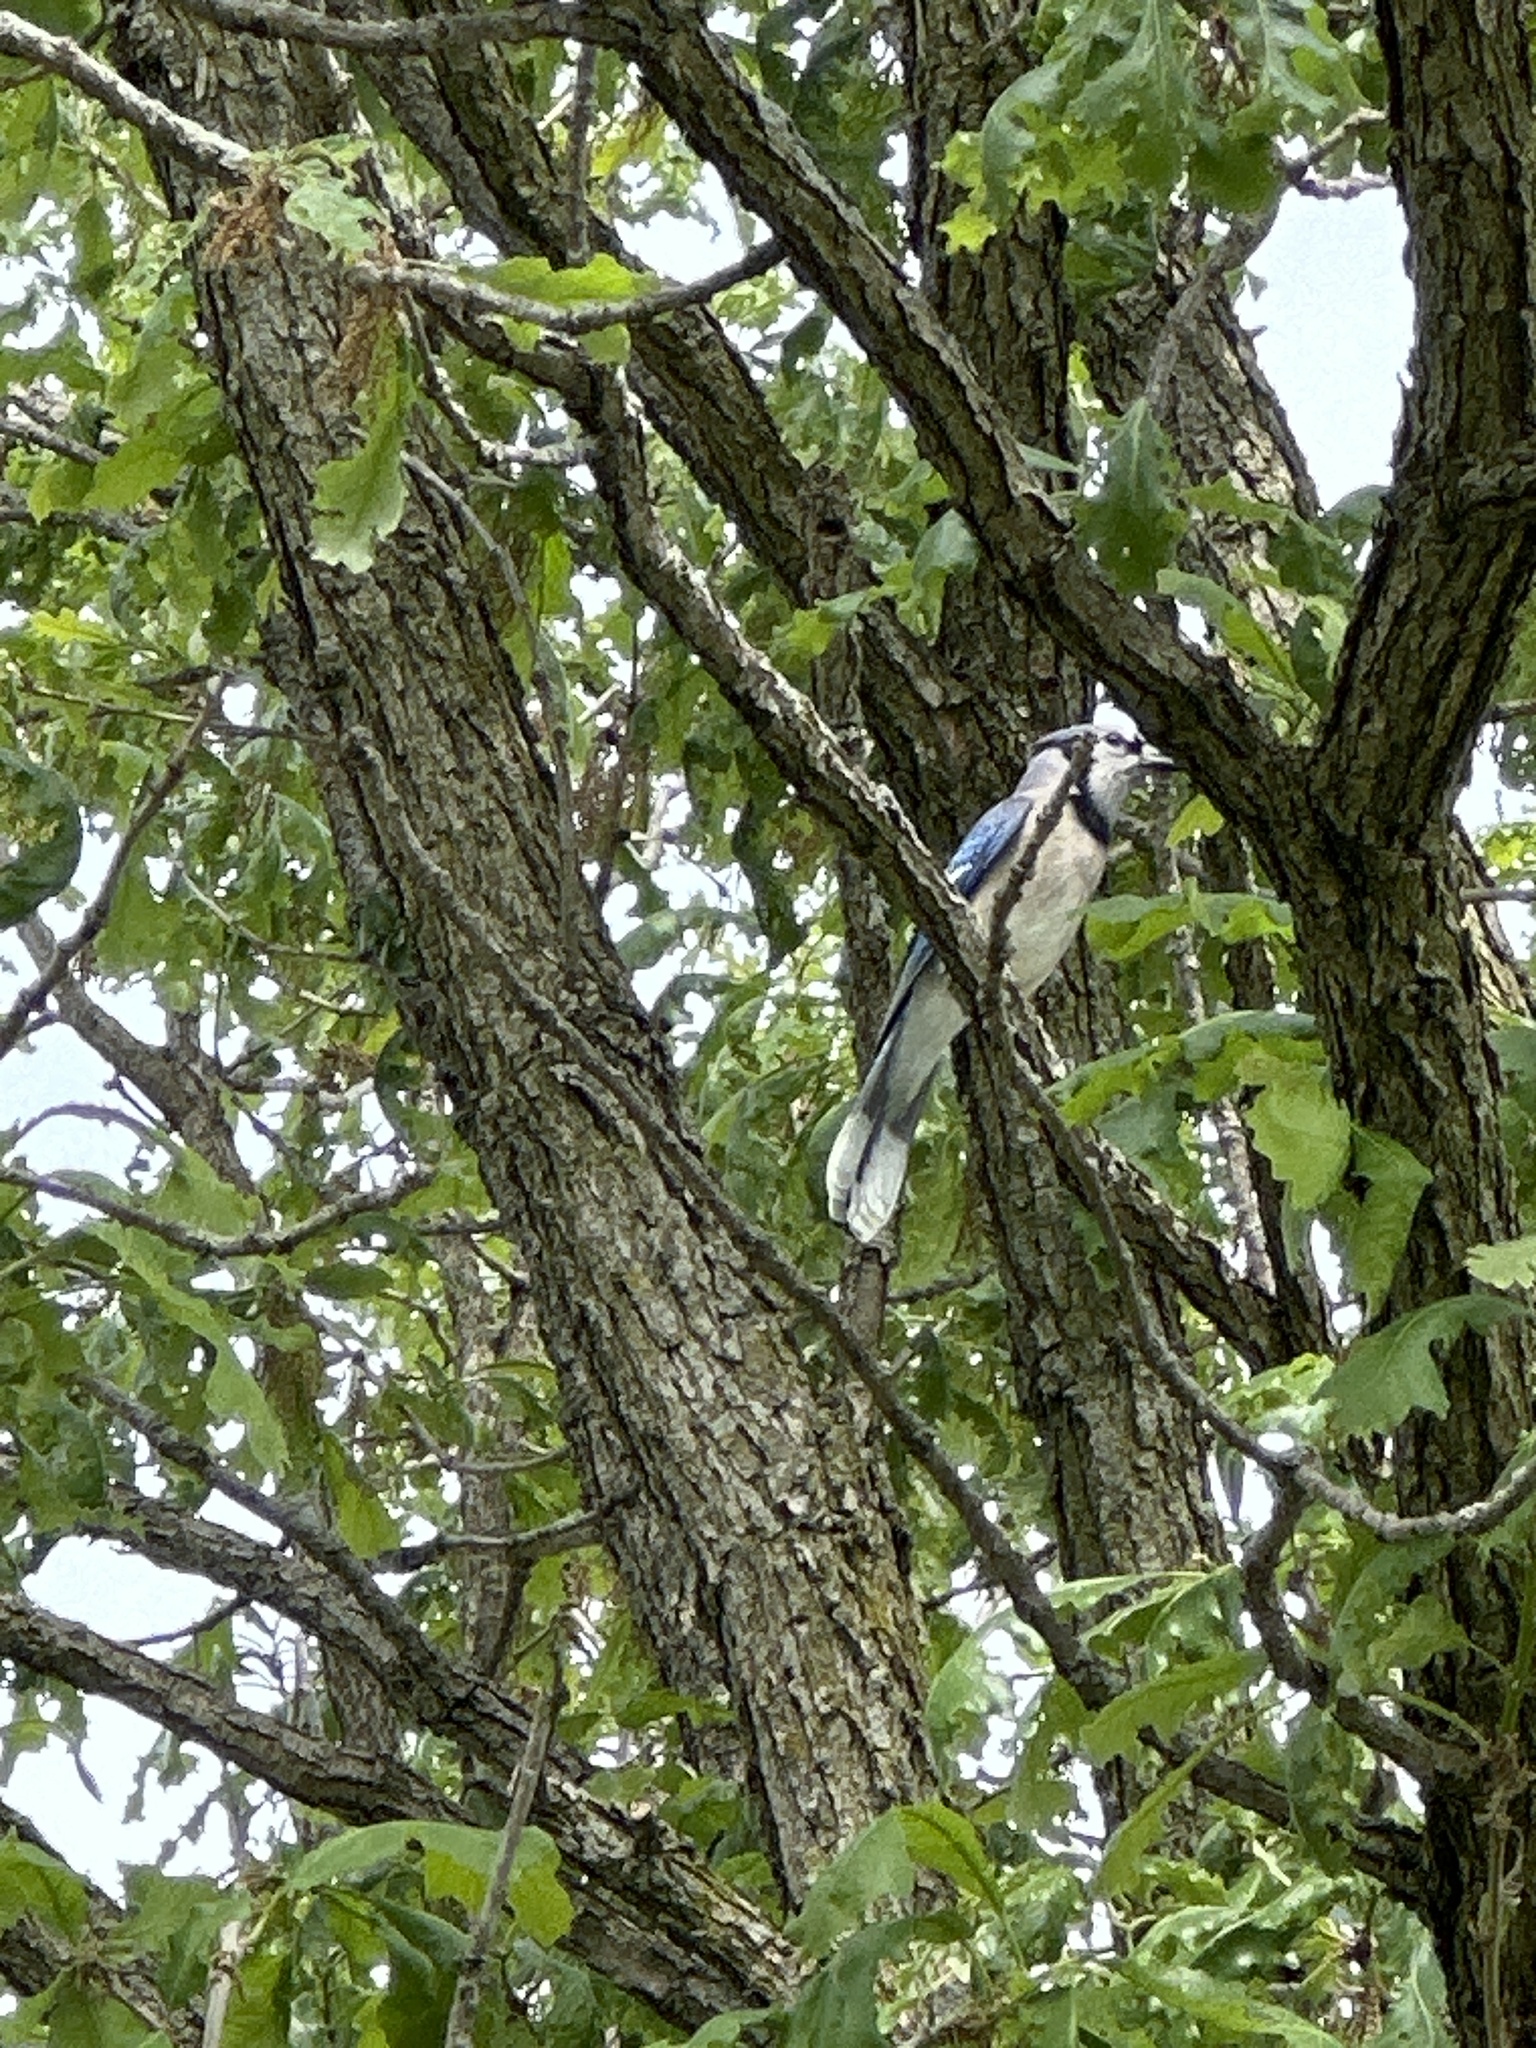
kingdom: Animalia
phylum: Chordata
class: Aves
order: Passeriformes
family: Corvidae
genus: Cyanocitta
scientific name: Cyanocitta cristata
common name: Blue jay
